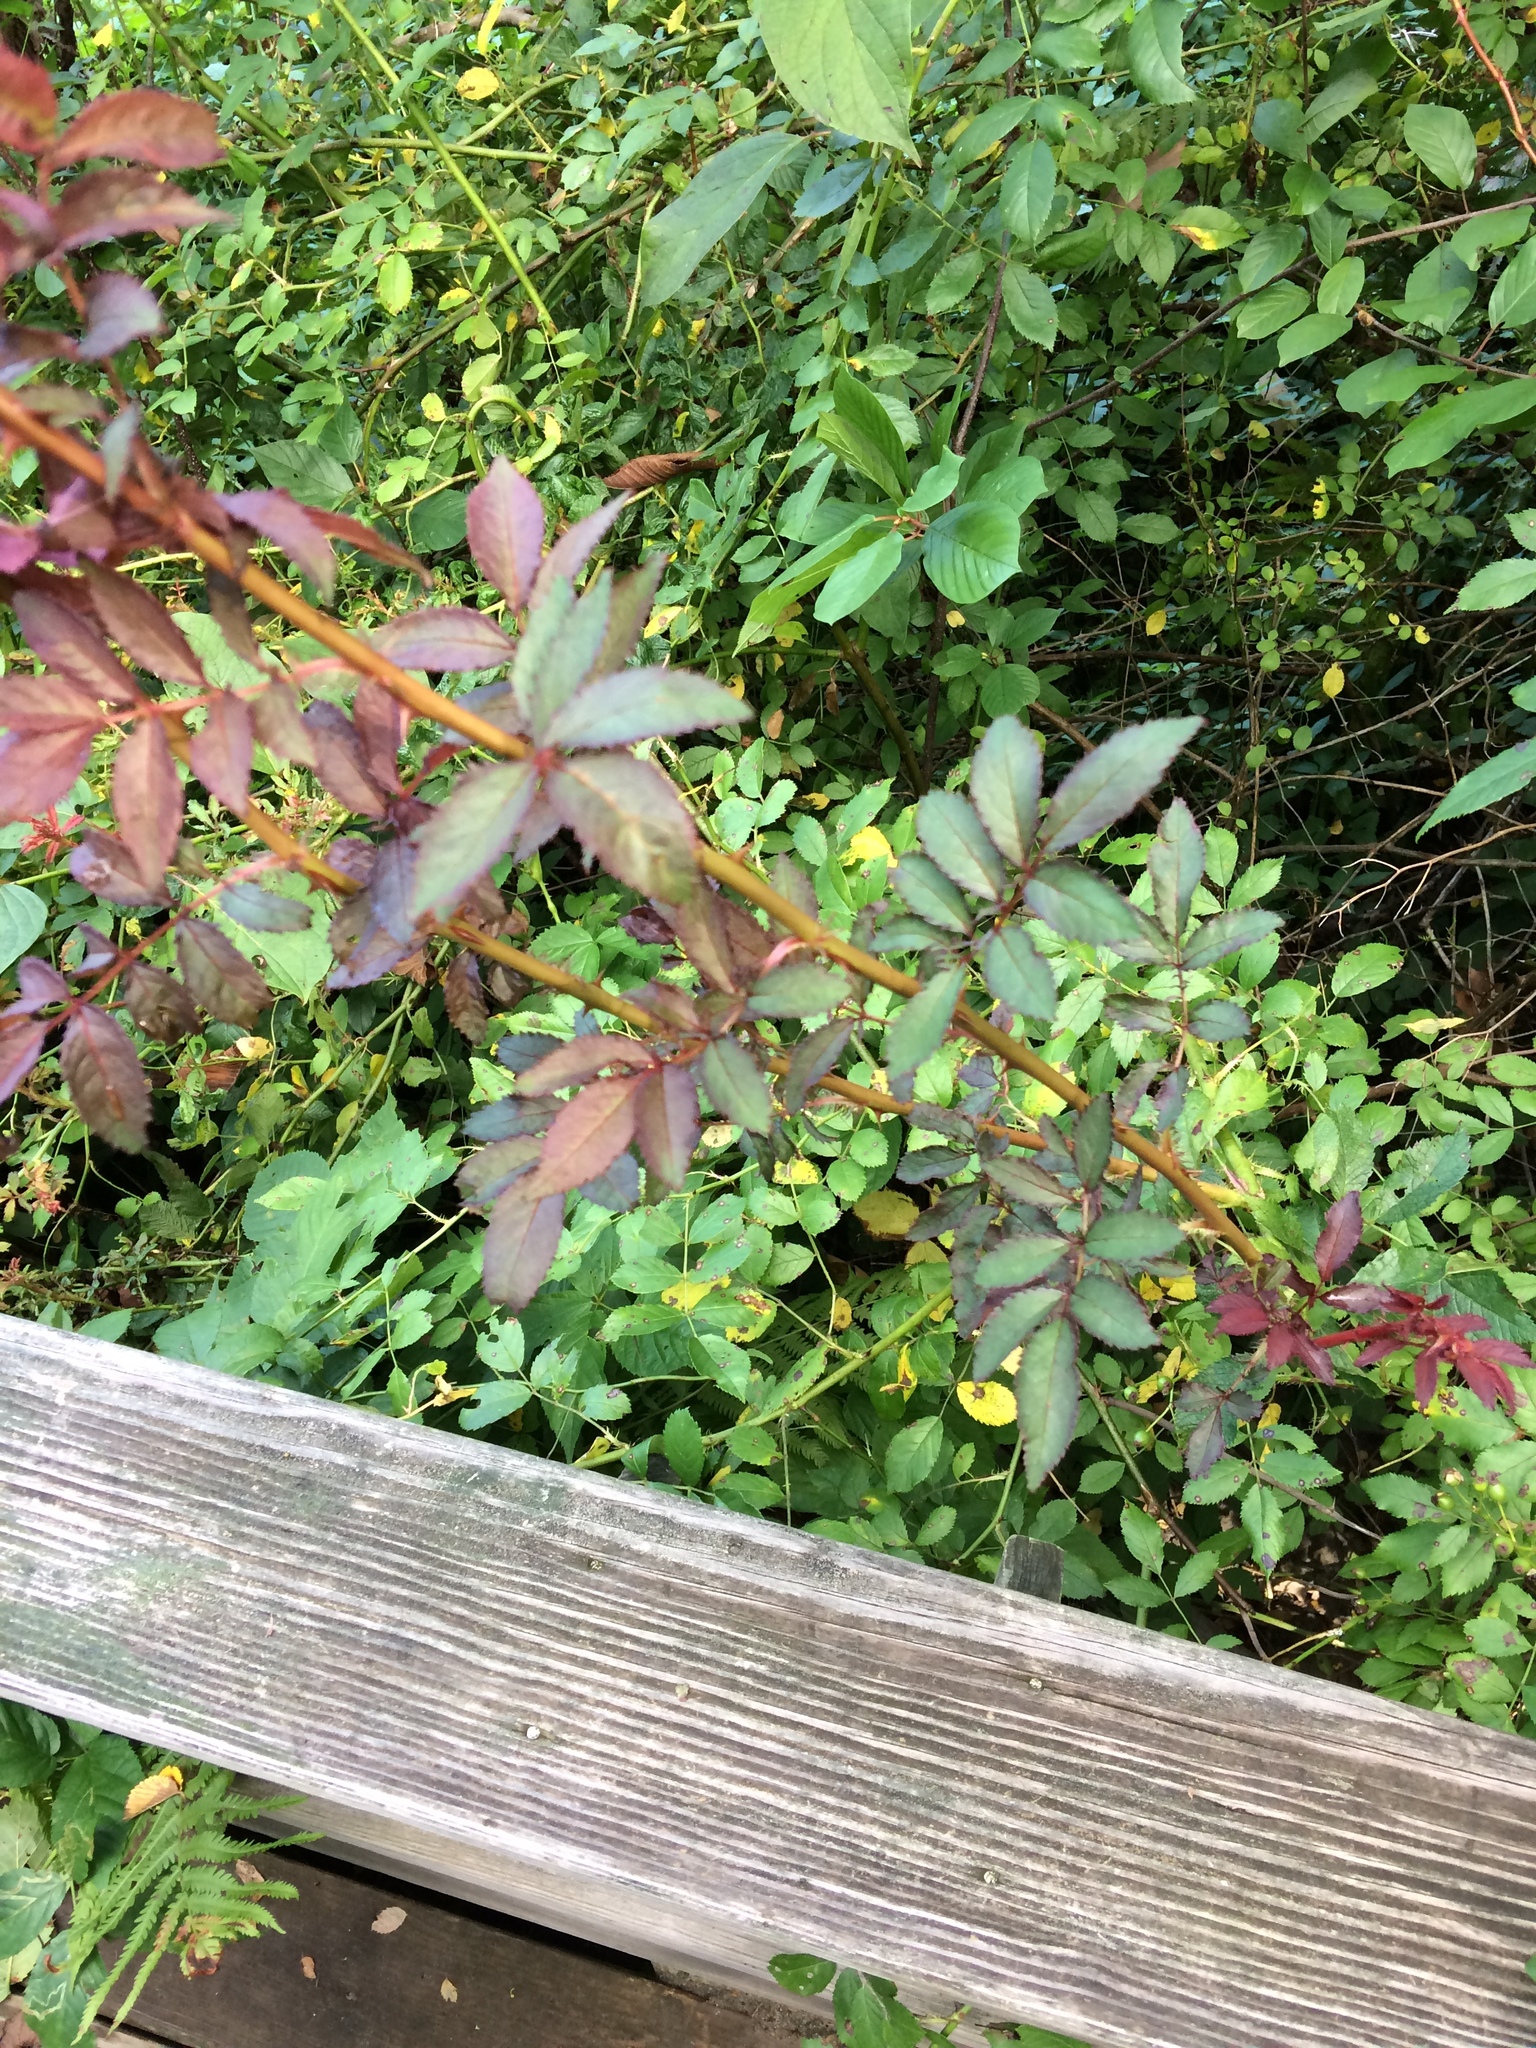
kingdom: Plantae
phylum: Tracheophyta
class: Magnoliopsida
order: Rosales
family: Rosaceae
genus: Rosa
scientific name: Rosa multiflora
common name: Multiflora rose
